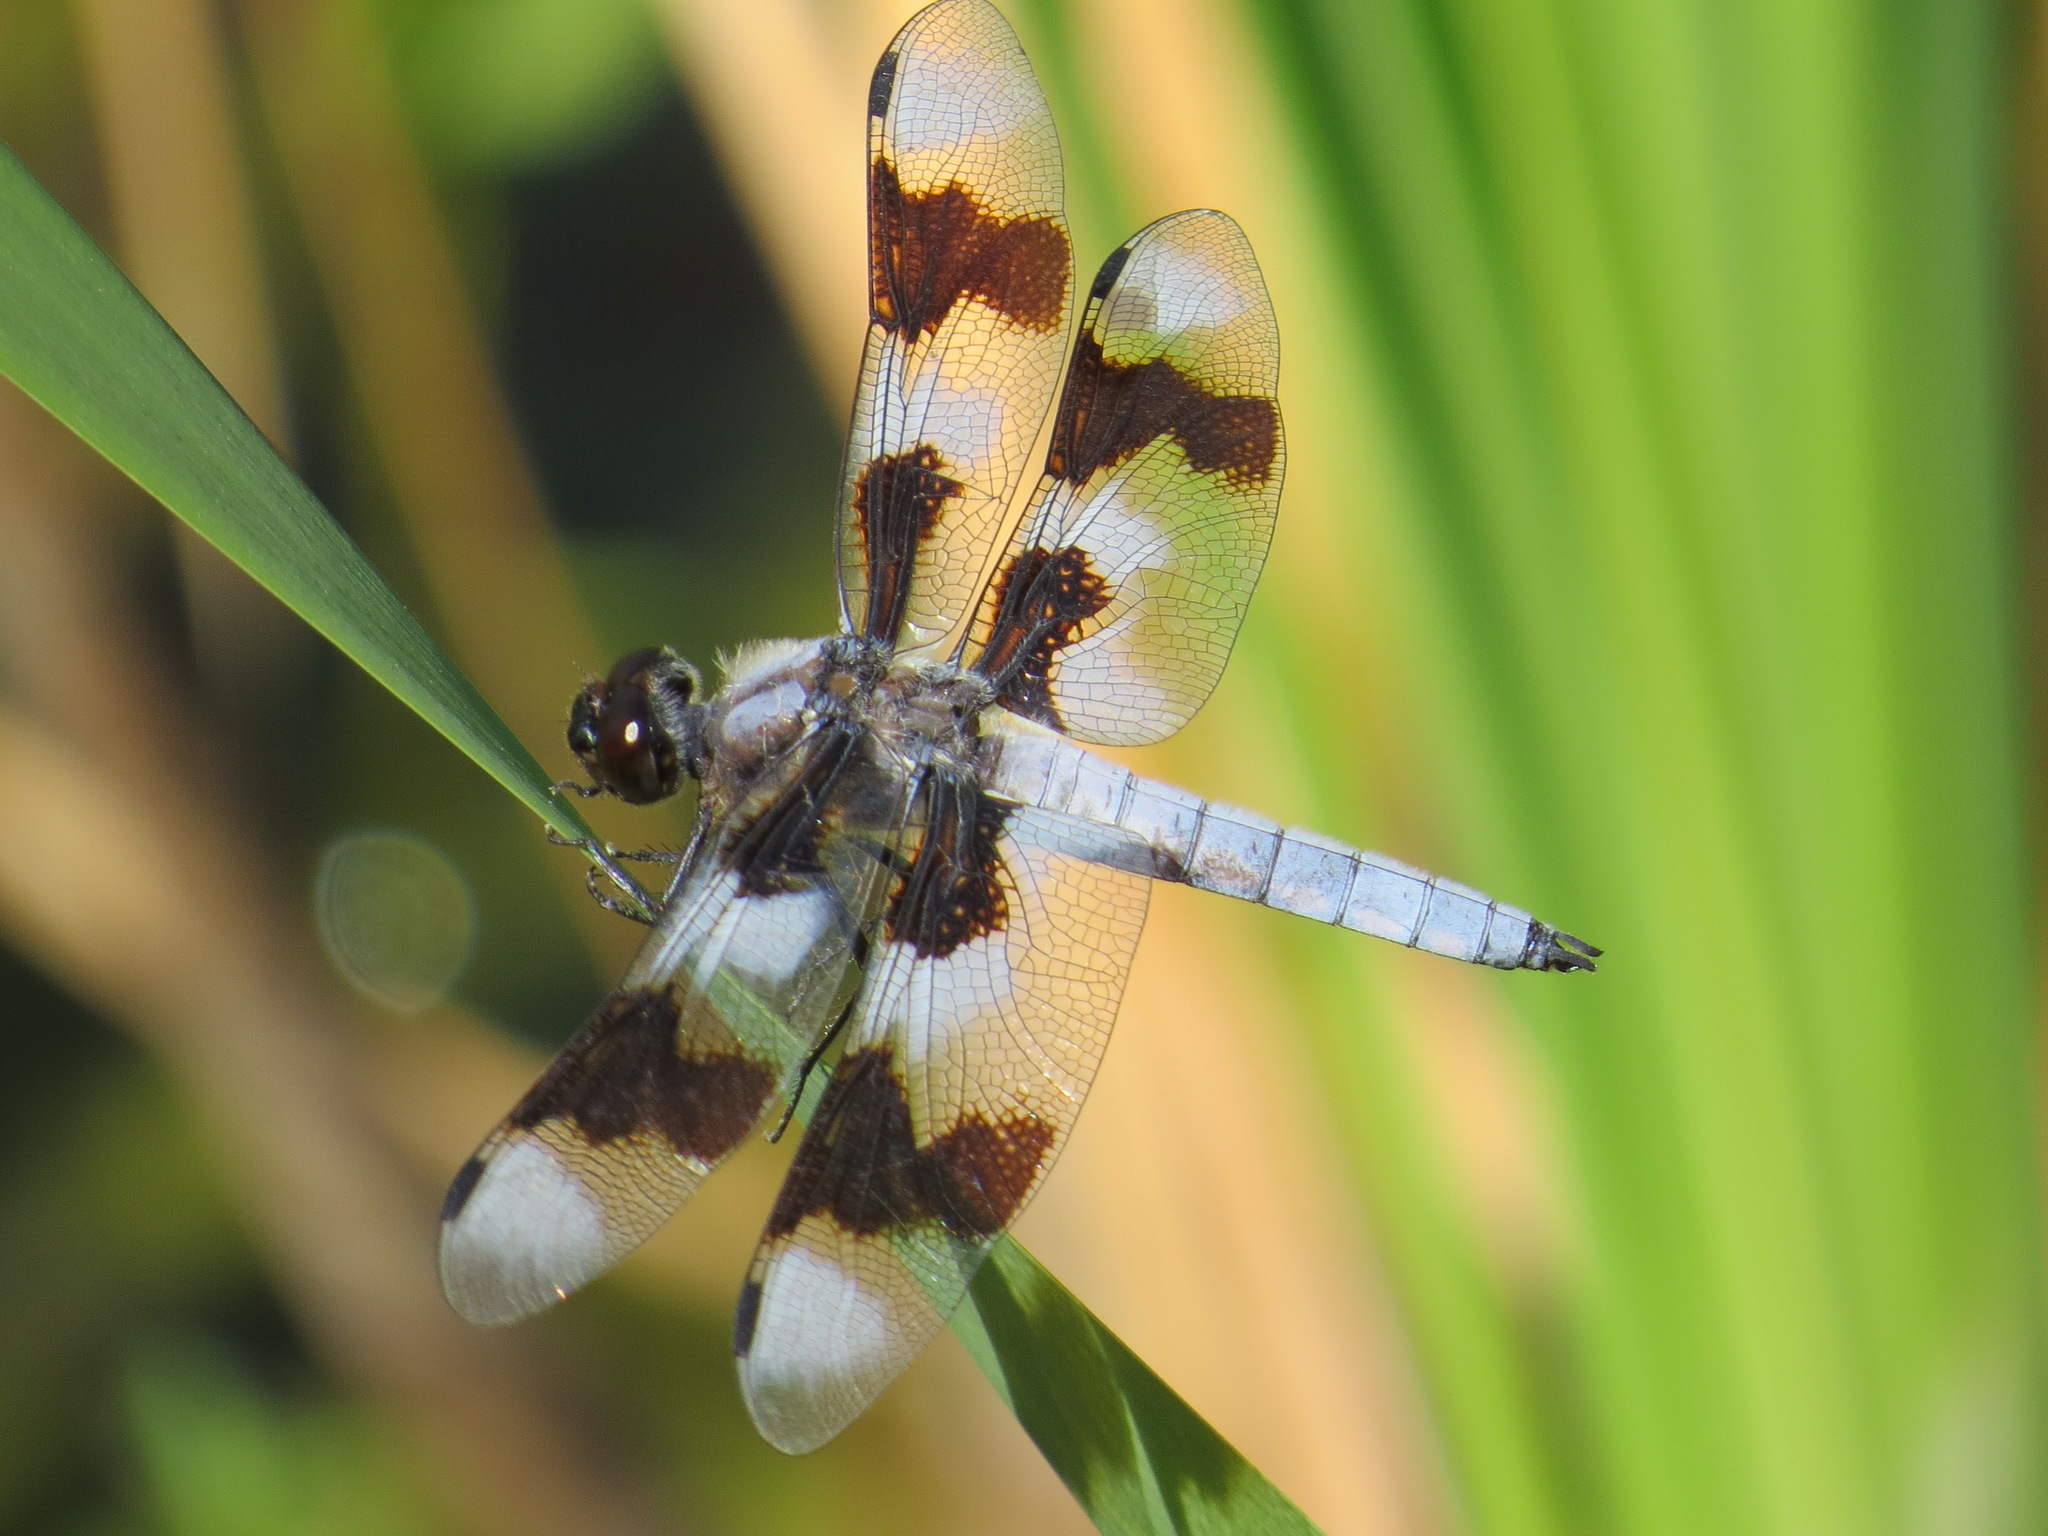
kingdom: Animalia
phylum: Arthropoda
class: Insecta
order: Odonata
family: Libellulidae
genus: Libellula
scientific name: Libellula forensis
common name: Eight-spotted skimmer
